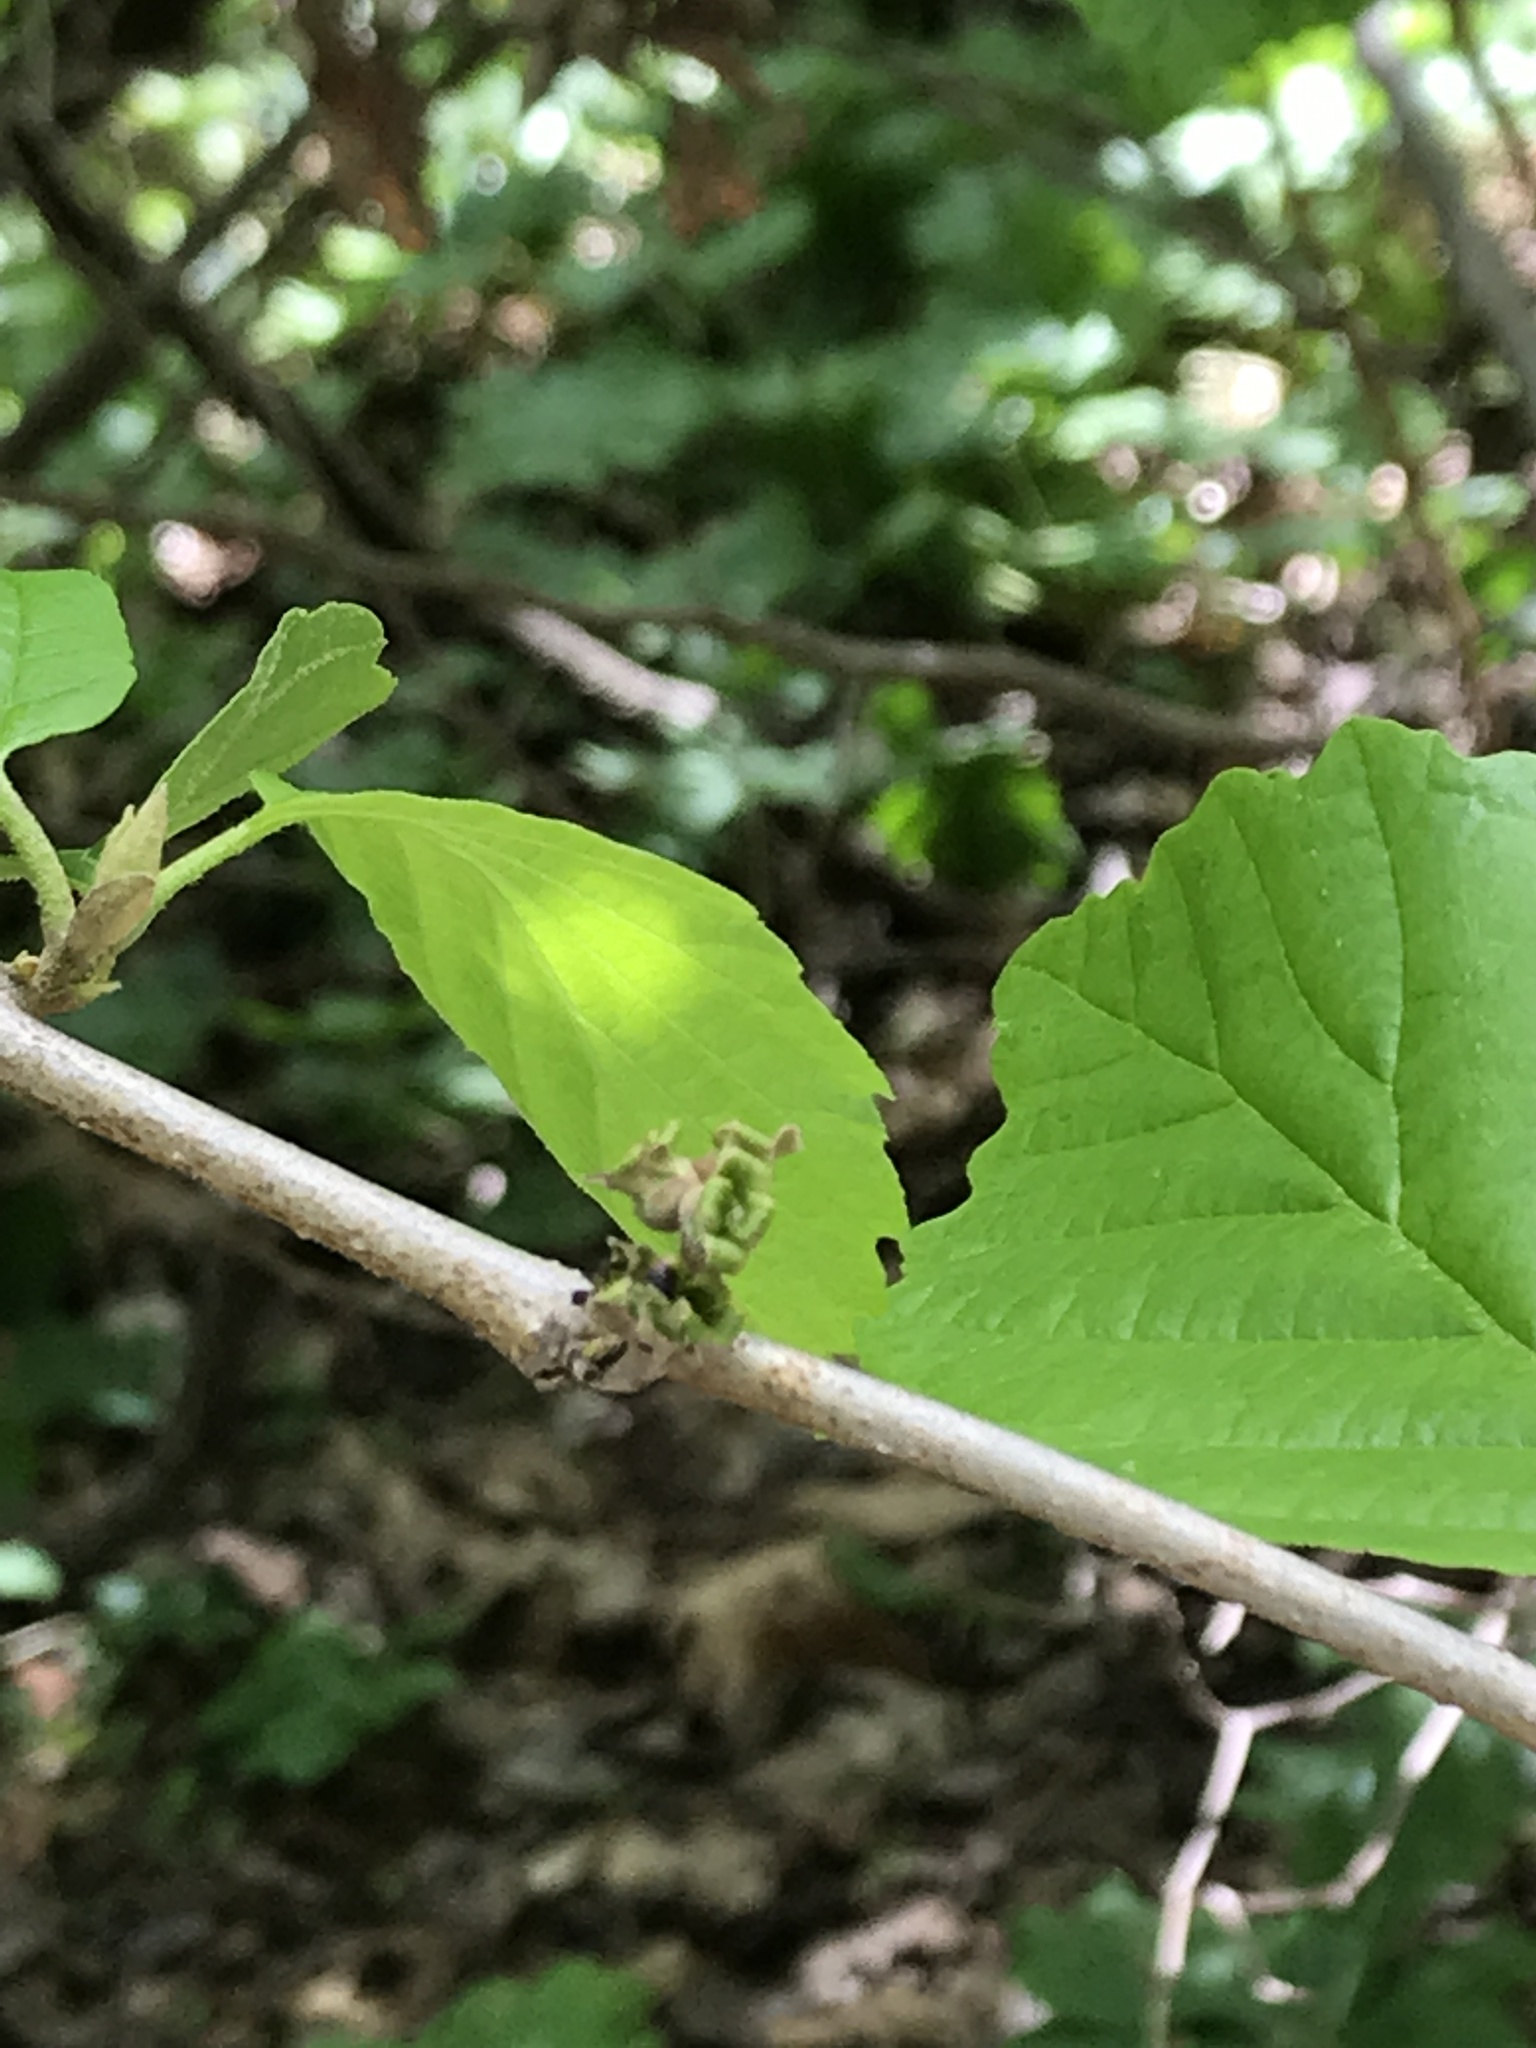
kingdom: Plantae
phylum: Tracheophyta
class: Magnoliopsida
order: Saxifragales
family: Hamamelidaceae
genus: Hamamelis
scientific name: Hamamelis virginiana
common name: Witch-hazel
